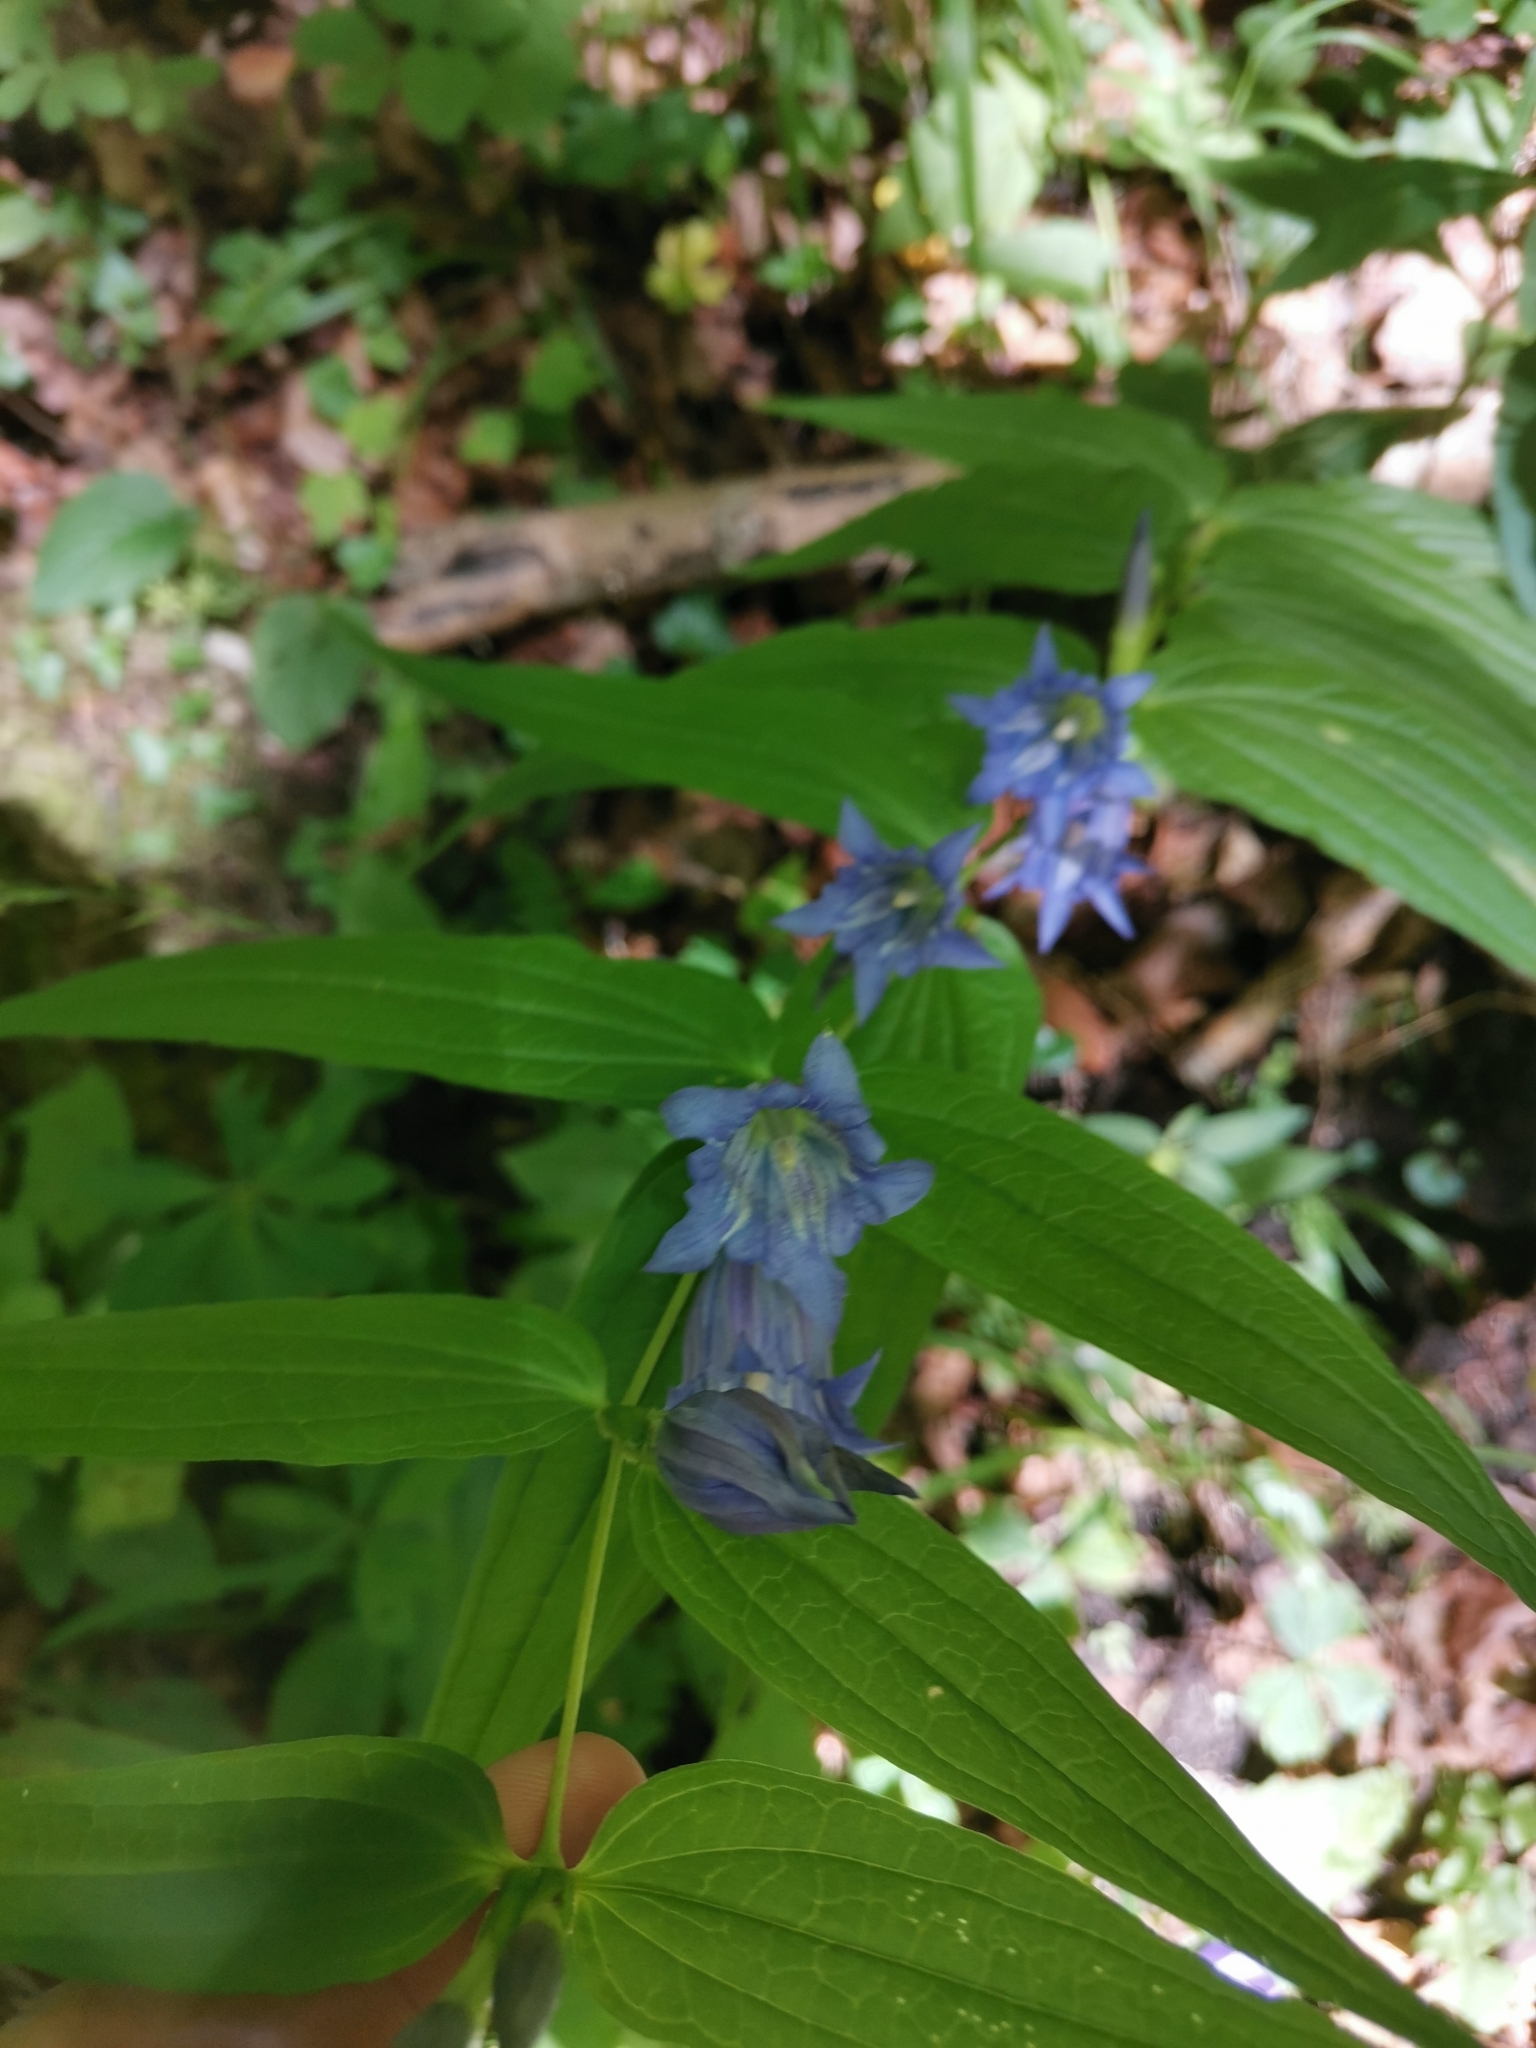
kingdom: Plantae
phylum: Tracheophyta
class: Magnoliopsida
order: Gentianales
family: Gentianaceae
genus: Gentiana
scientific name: Gentiana asclepiadea
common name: Willow gentian
